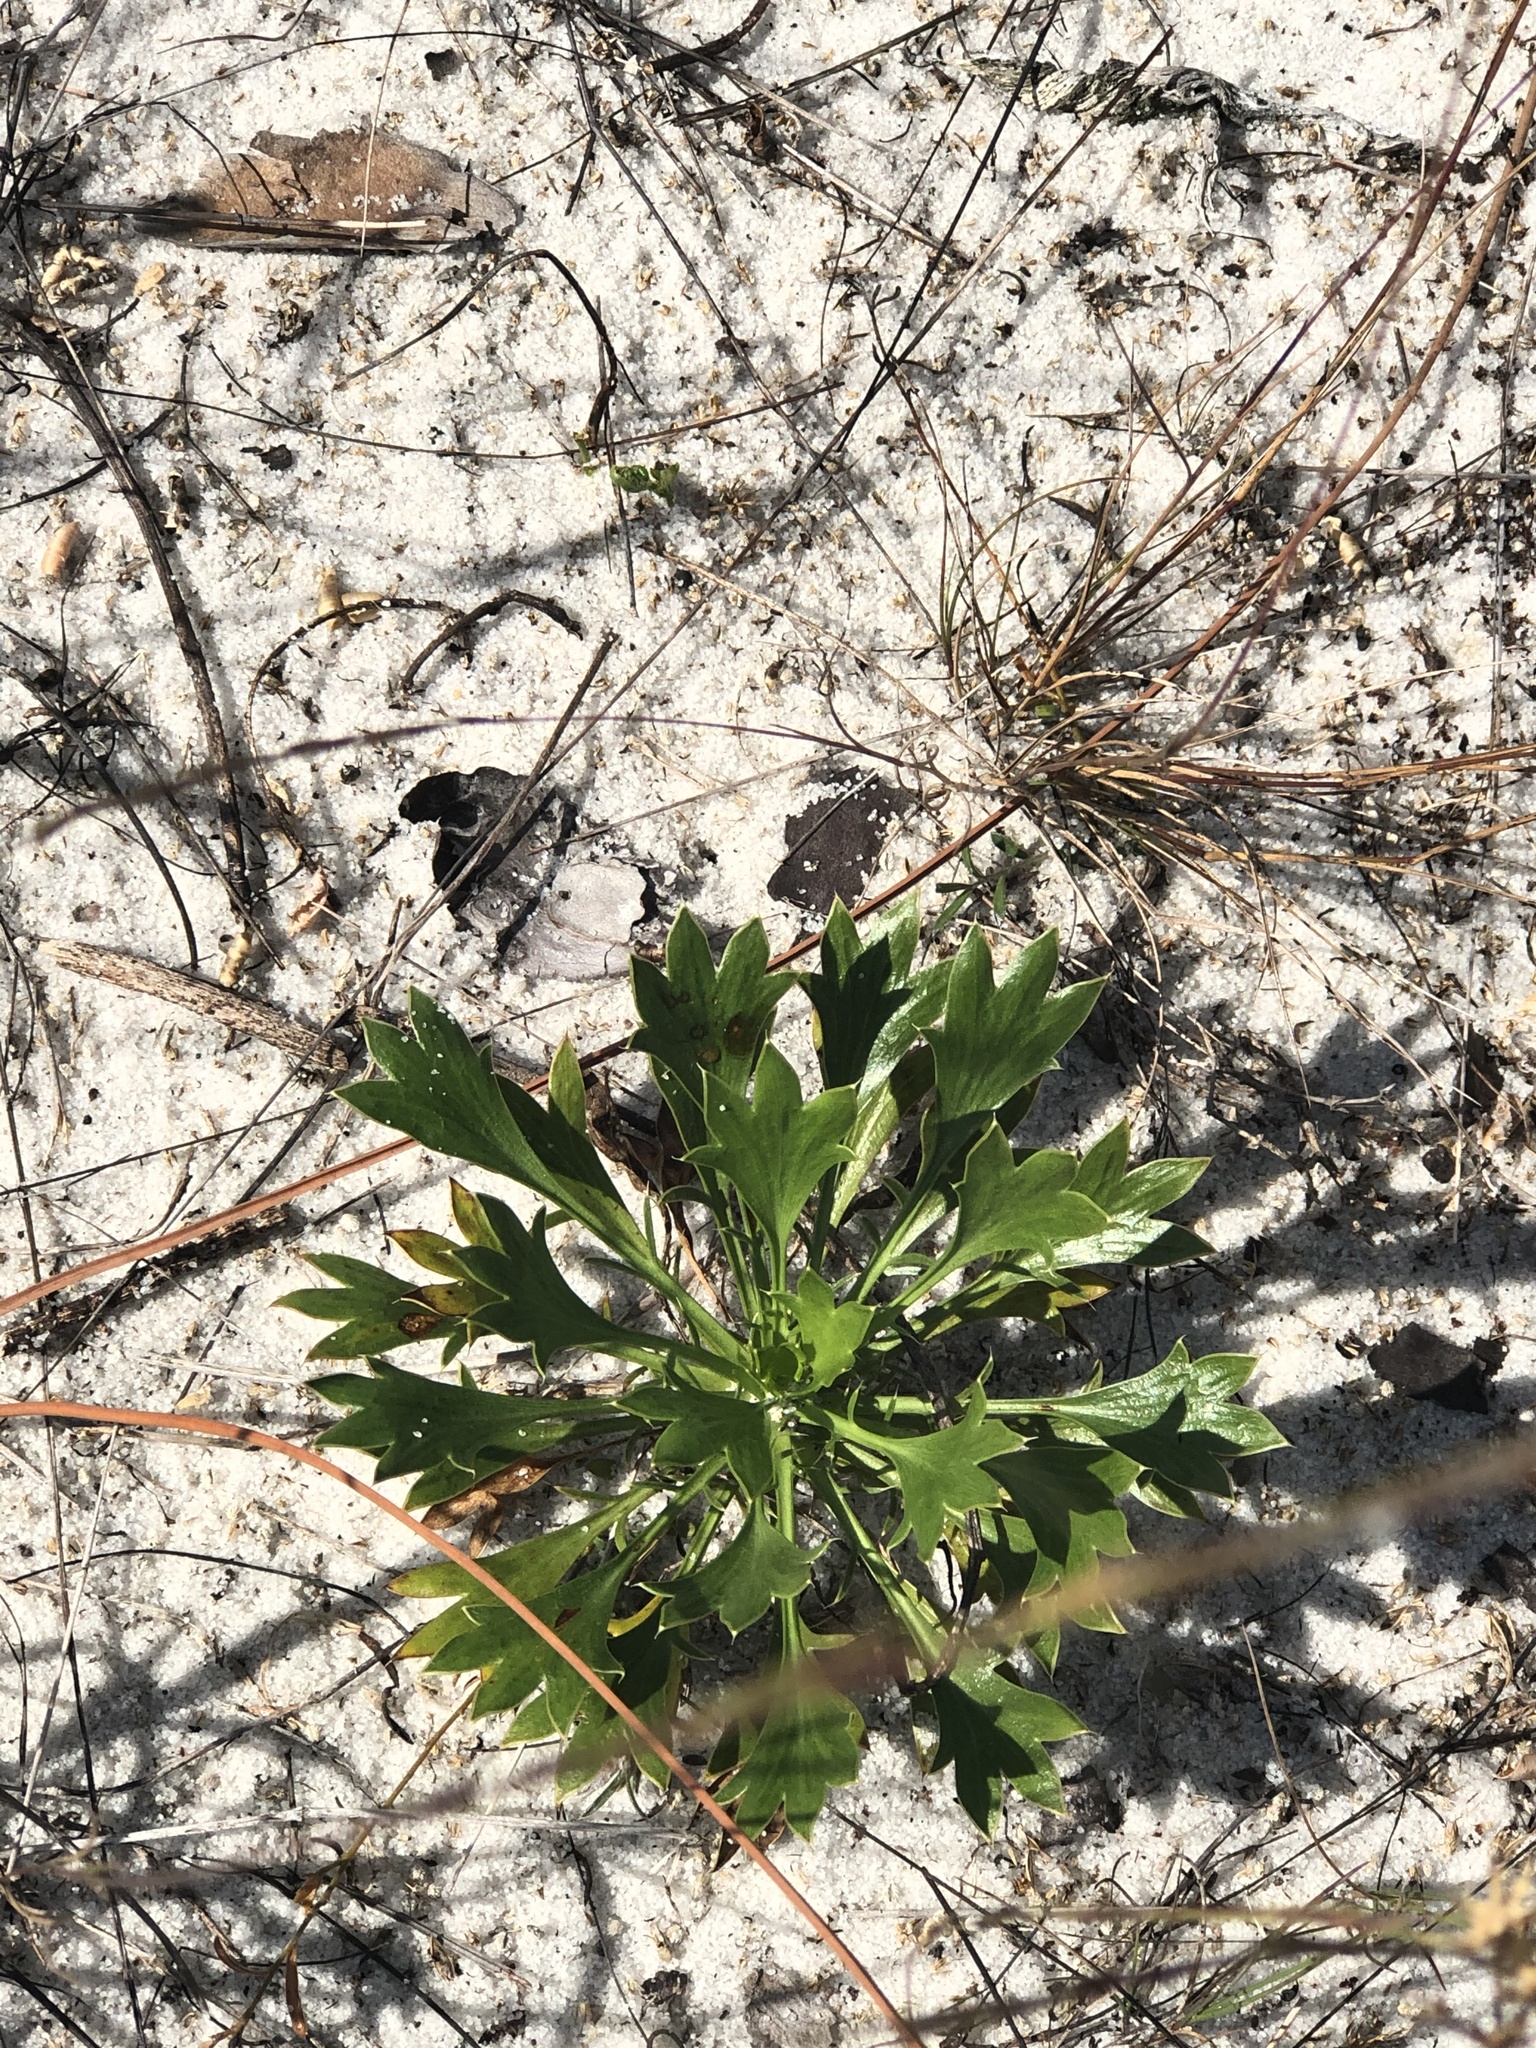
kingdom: Plantae
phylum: Tracheophyta
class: Magnoliopsida
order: Apiales
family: Apiaceae
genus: Eryngium
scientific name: Eryngium cuneifolium
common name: Snakeroot
